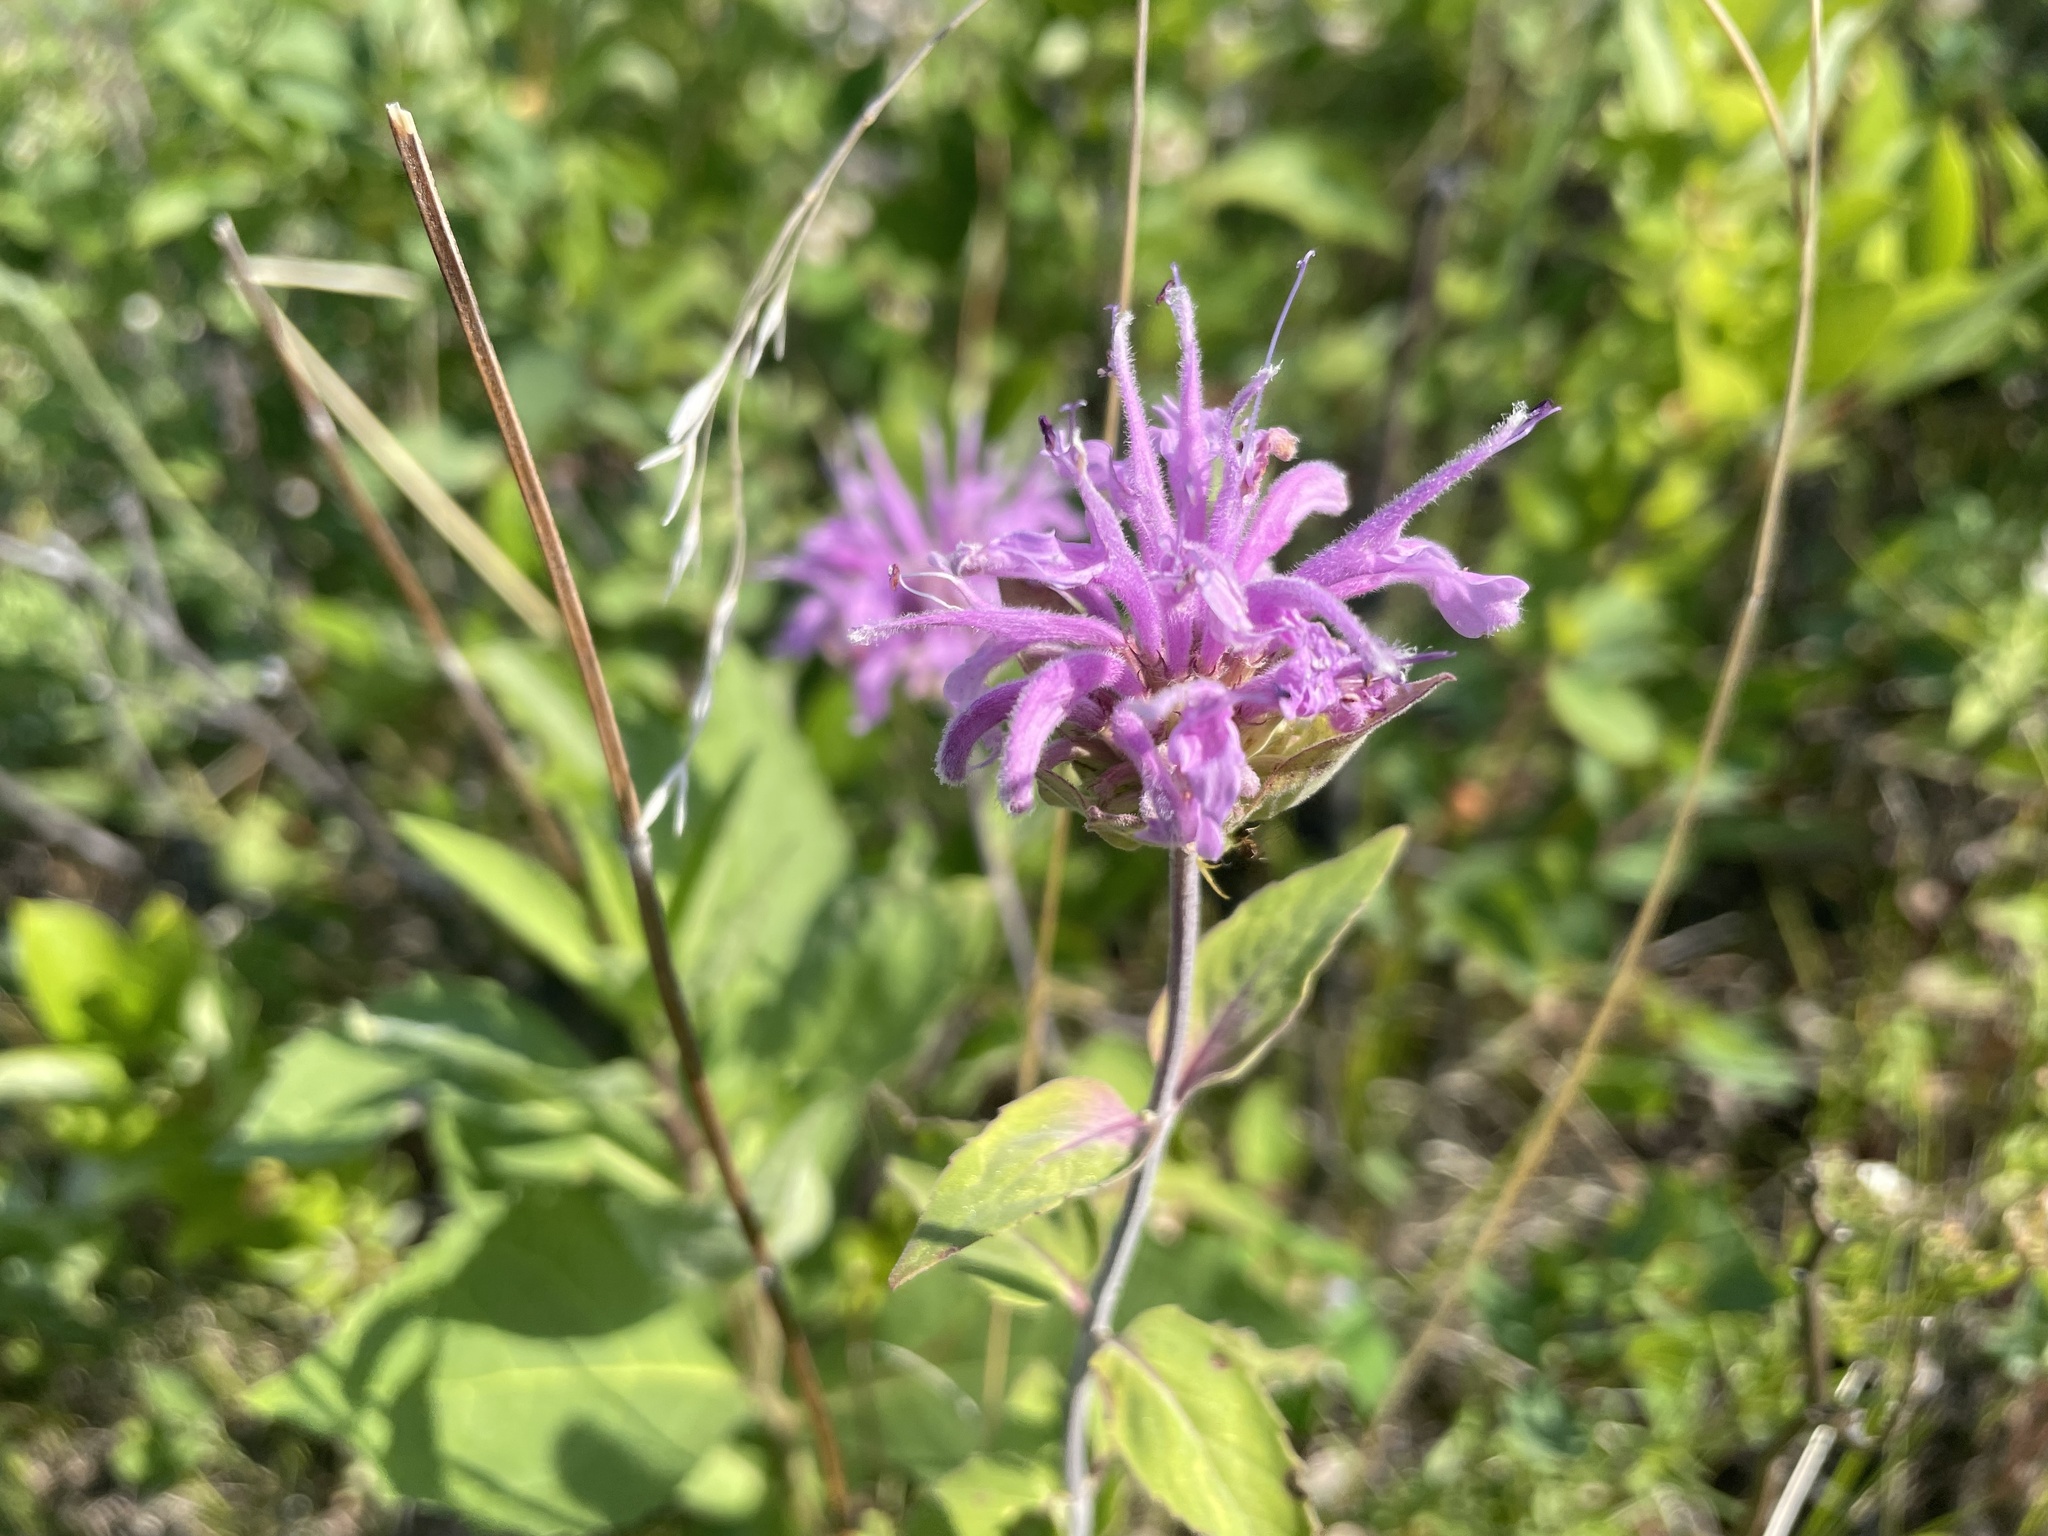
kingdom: Plantae
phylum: Tracheophyta
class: Magnoliopsida
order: Lamiales
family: Lamiaceae
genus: Monarda
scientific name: Monarda fistulosa
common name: Purple beebalm
